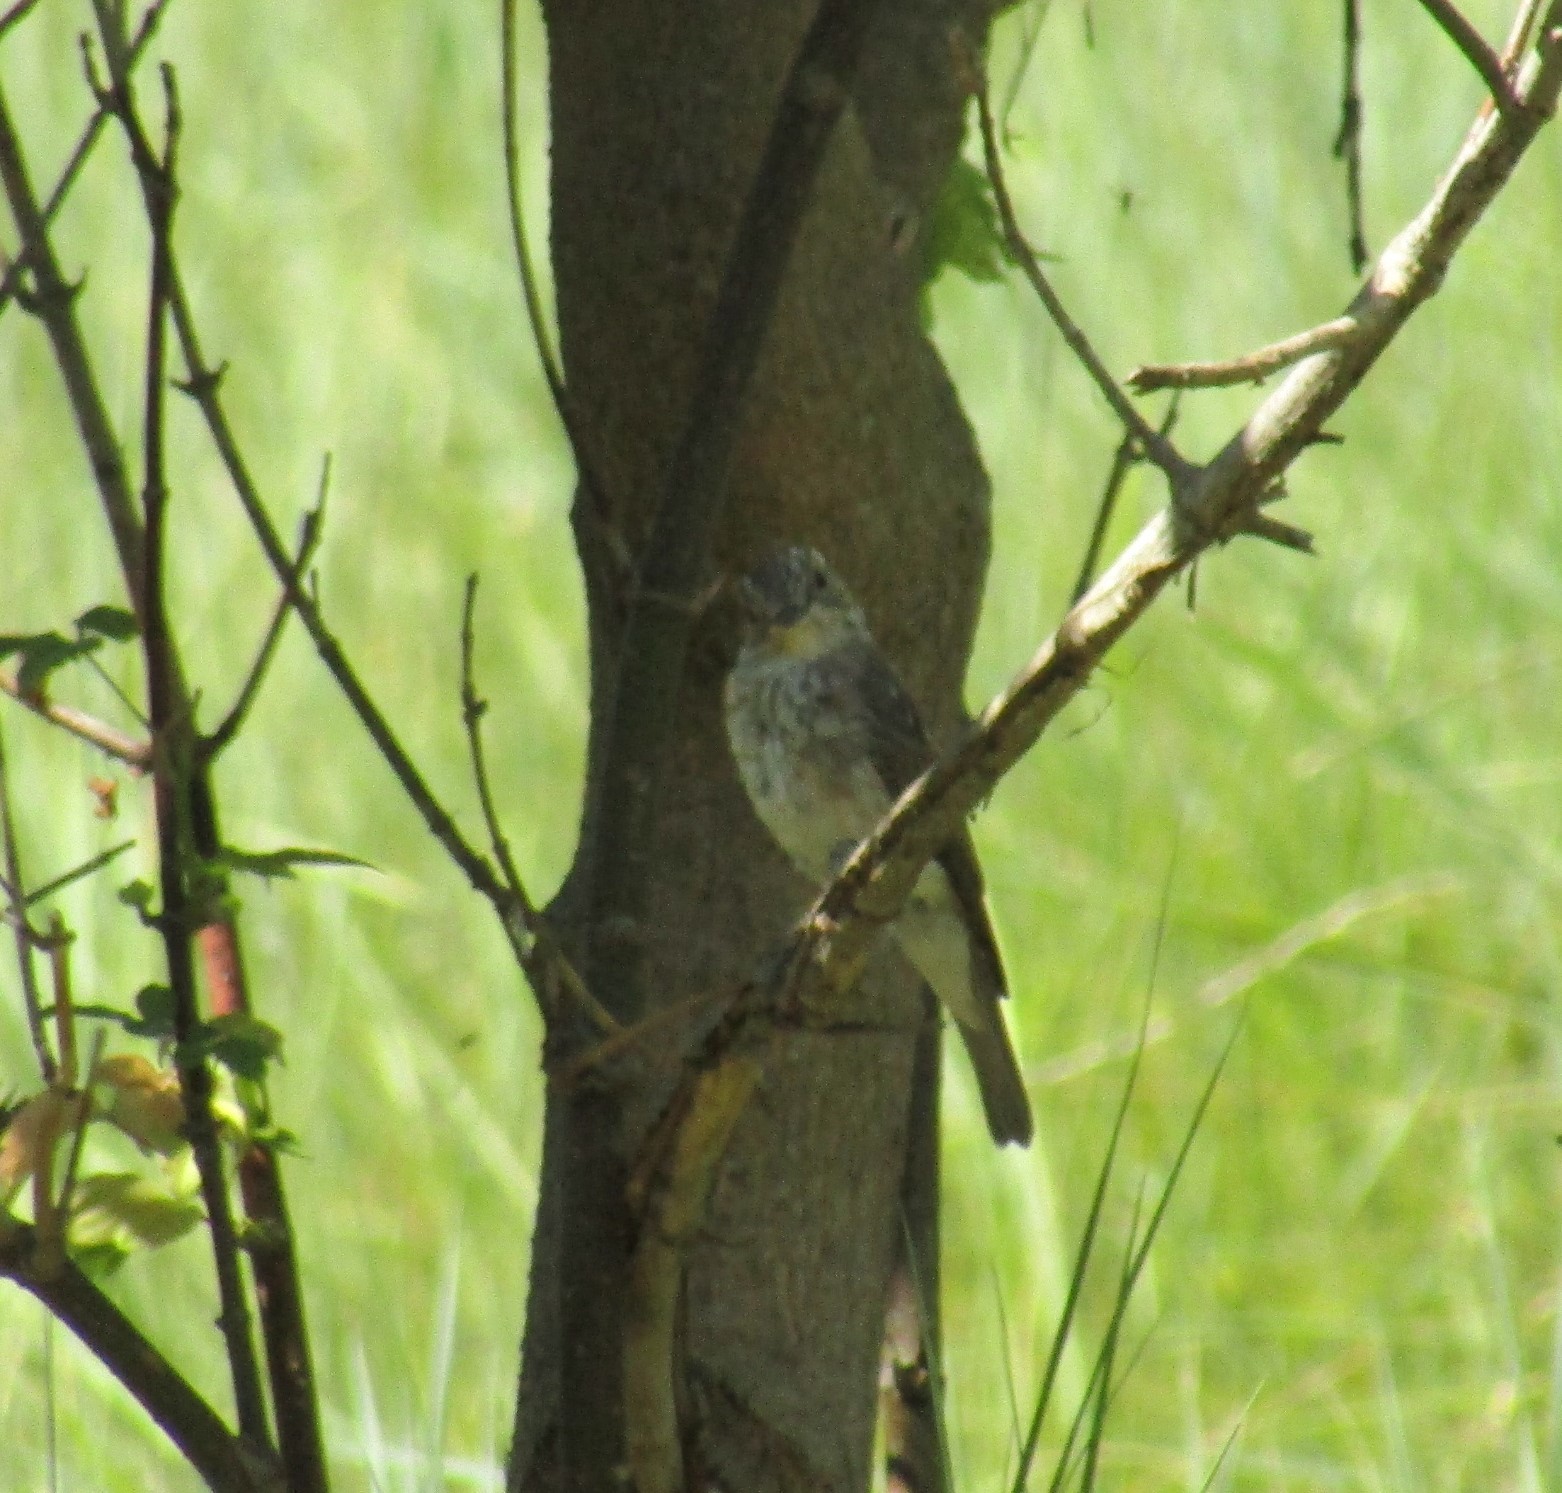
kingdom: Animalia
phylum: Chordata
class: Aves
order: Passeriformes
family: Muscicapidae
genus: Muscicapa
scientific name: Muscicapa striata
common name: Spotted flycatcher
